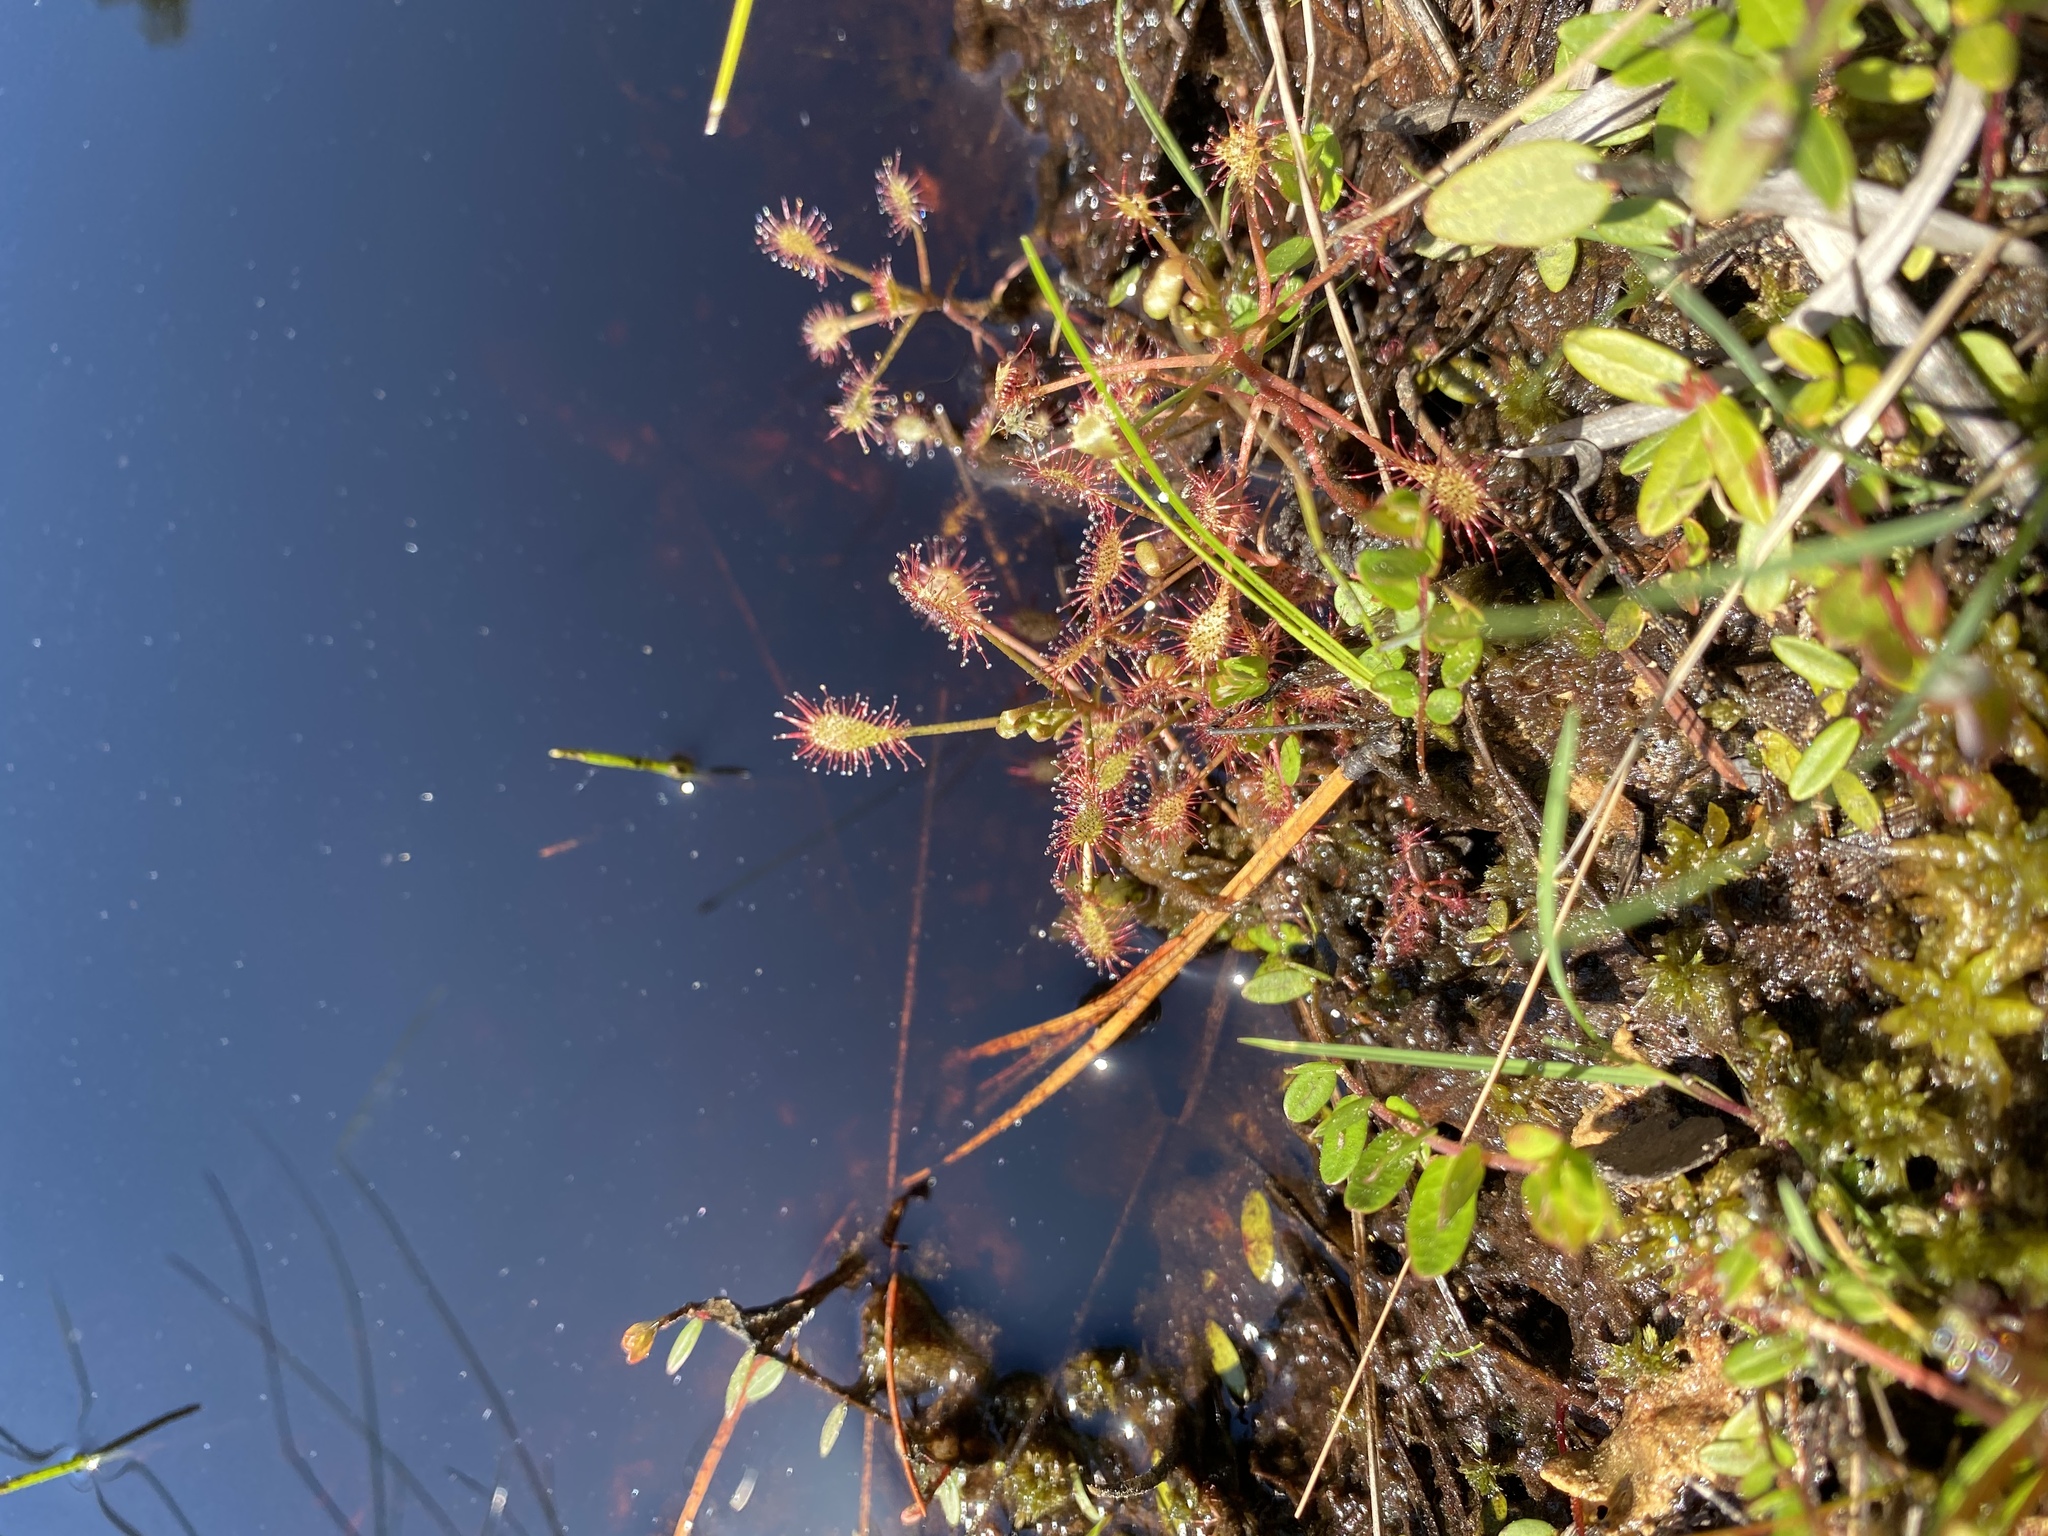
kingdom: Plantae
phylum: Tracheophyta
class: Magnoliopsida
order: Caryophyllales
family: Droseraceae
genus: Drosera
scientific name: Drosera intermedia
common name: Oblong-leaved sundew
